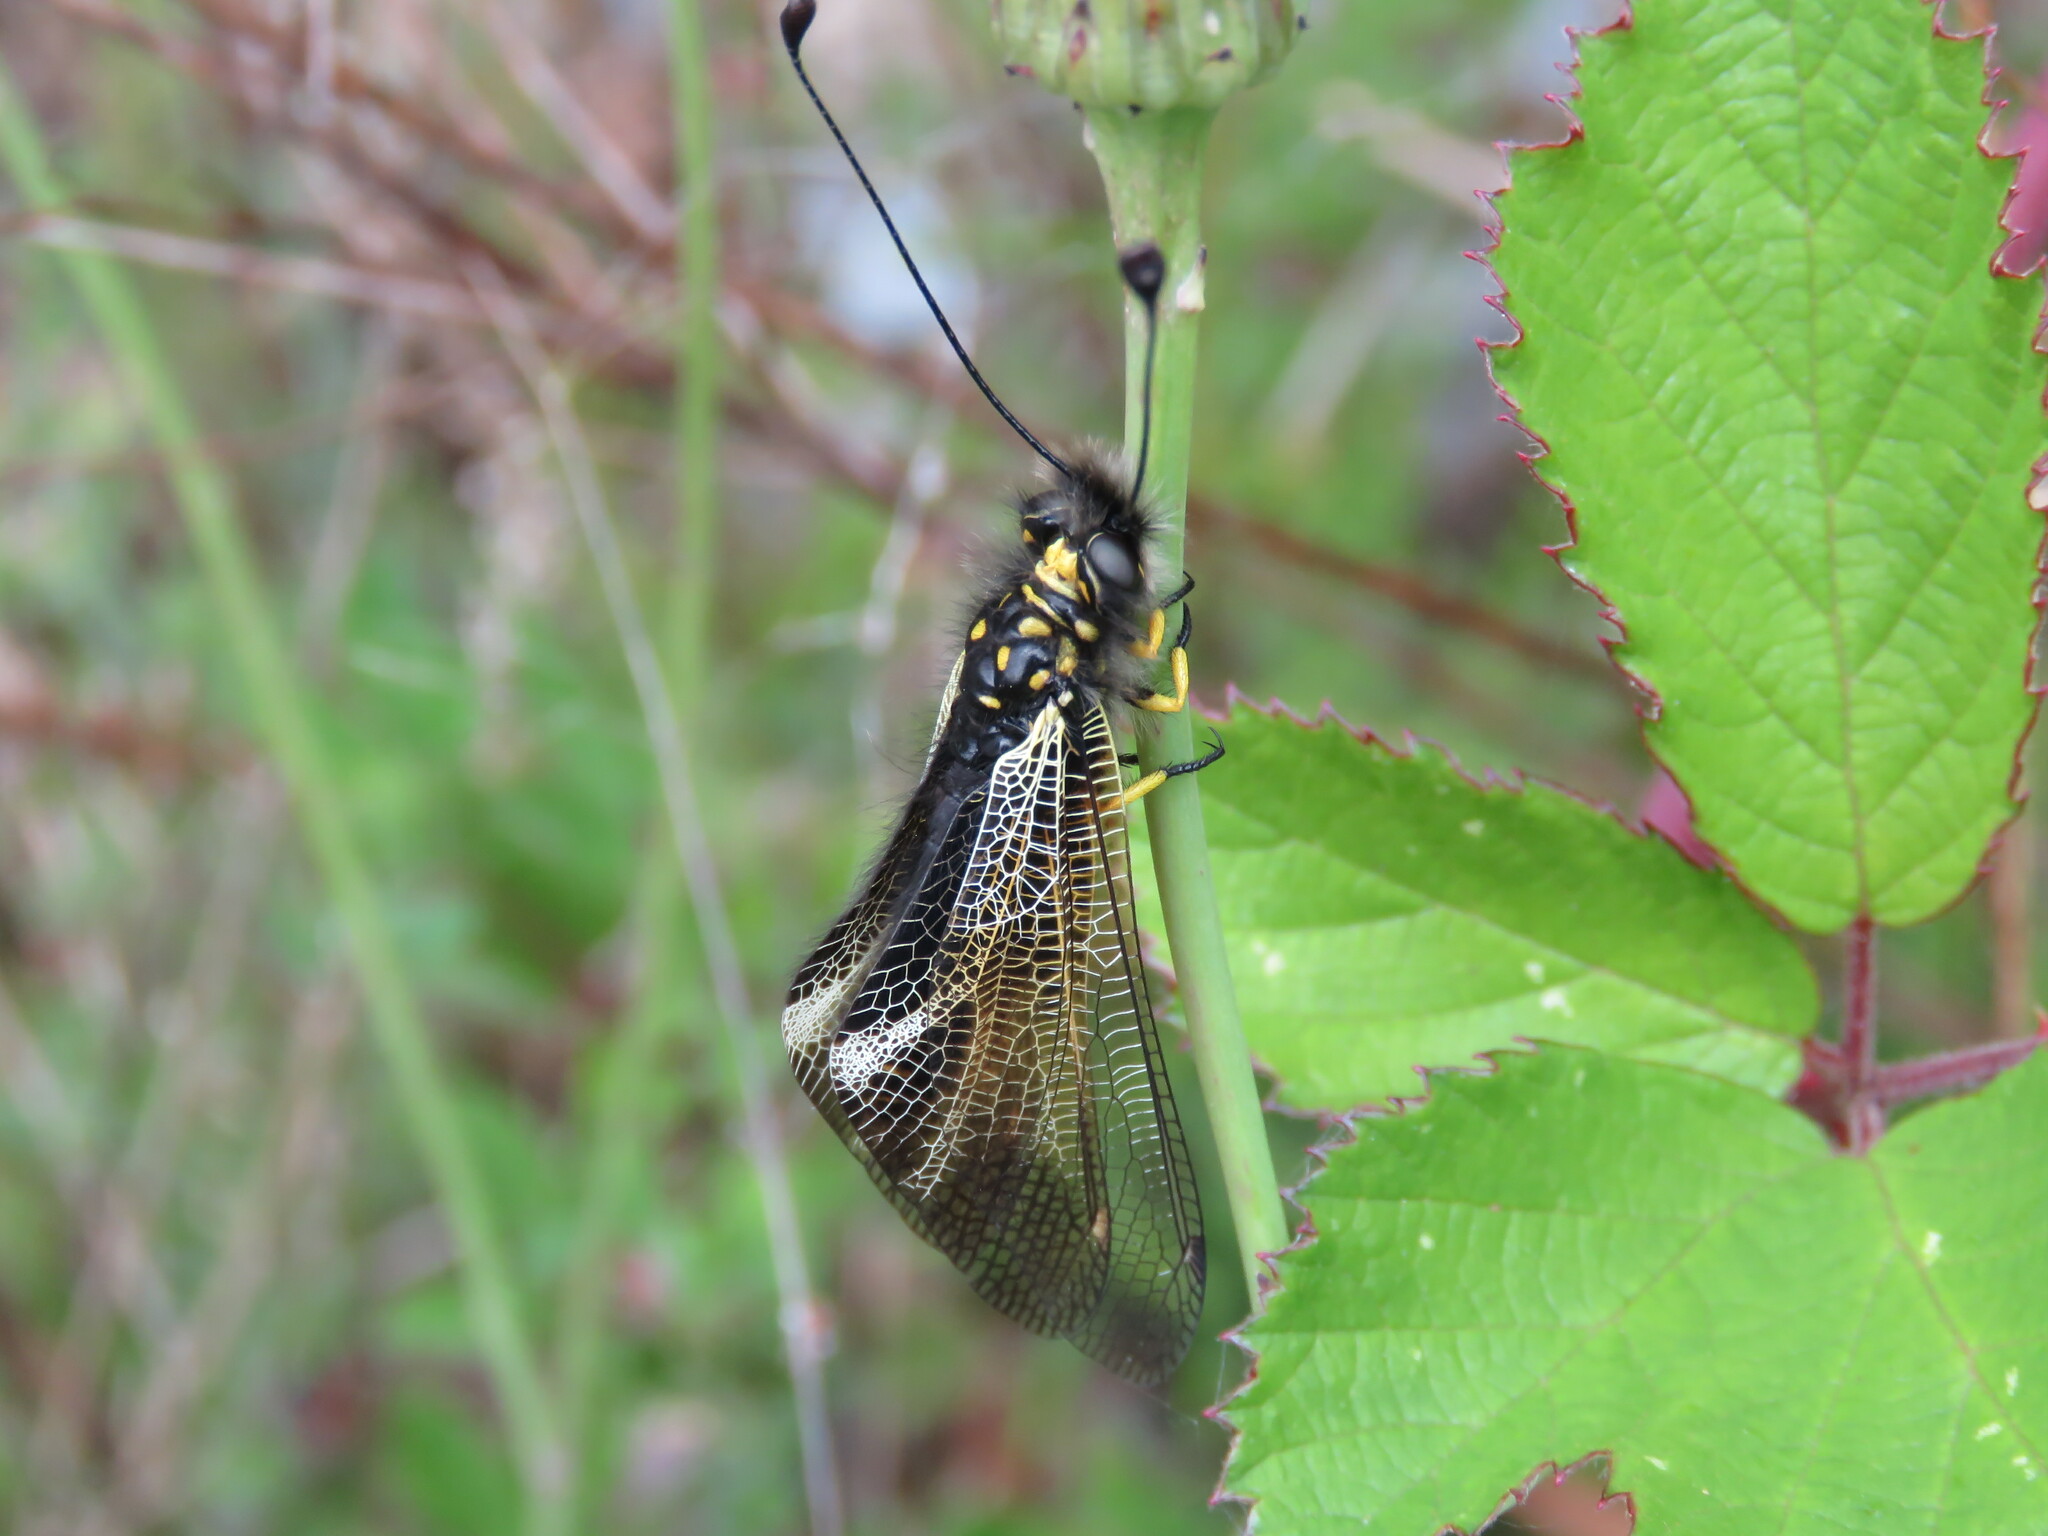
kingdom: Animalia
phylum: Arthropoda
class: Insecta
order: Neuroptera
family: Ascalaphidae
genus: Libelloides
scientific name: Libelloides hispanicus
